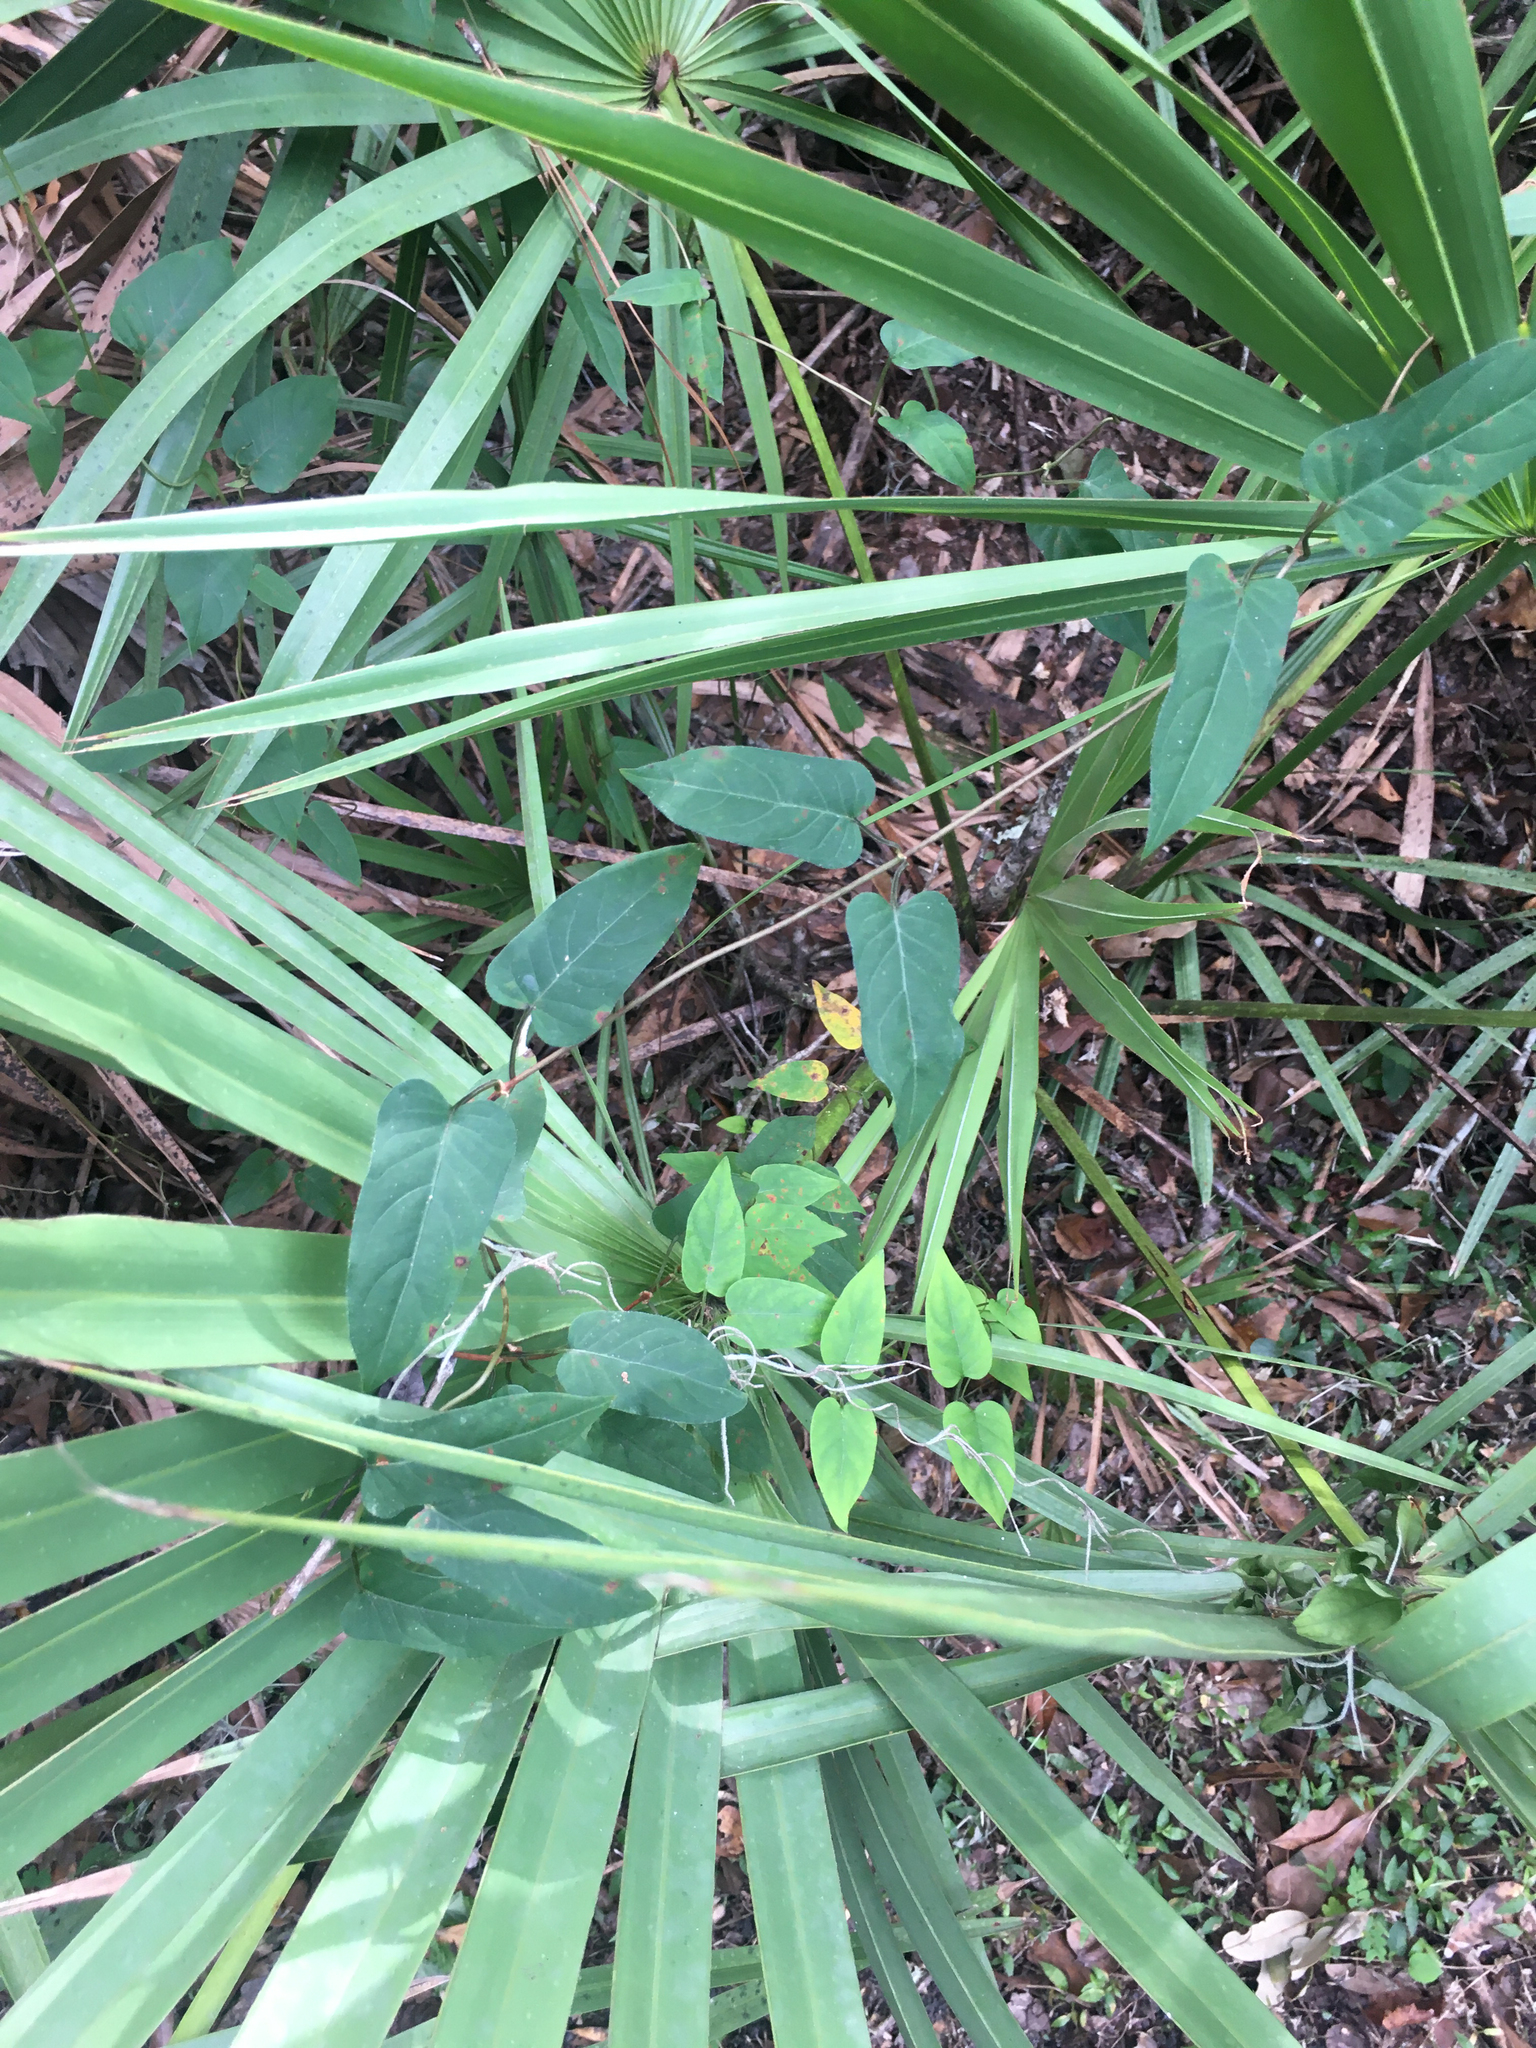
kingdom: Plantae
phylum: Tracheophyta
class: Magnoliopsida
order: Gentianales
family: Rubiaceae
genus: Paederia
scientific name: Paederia foetida
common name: Stinkvine
